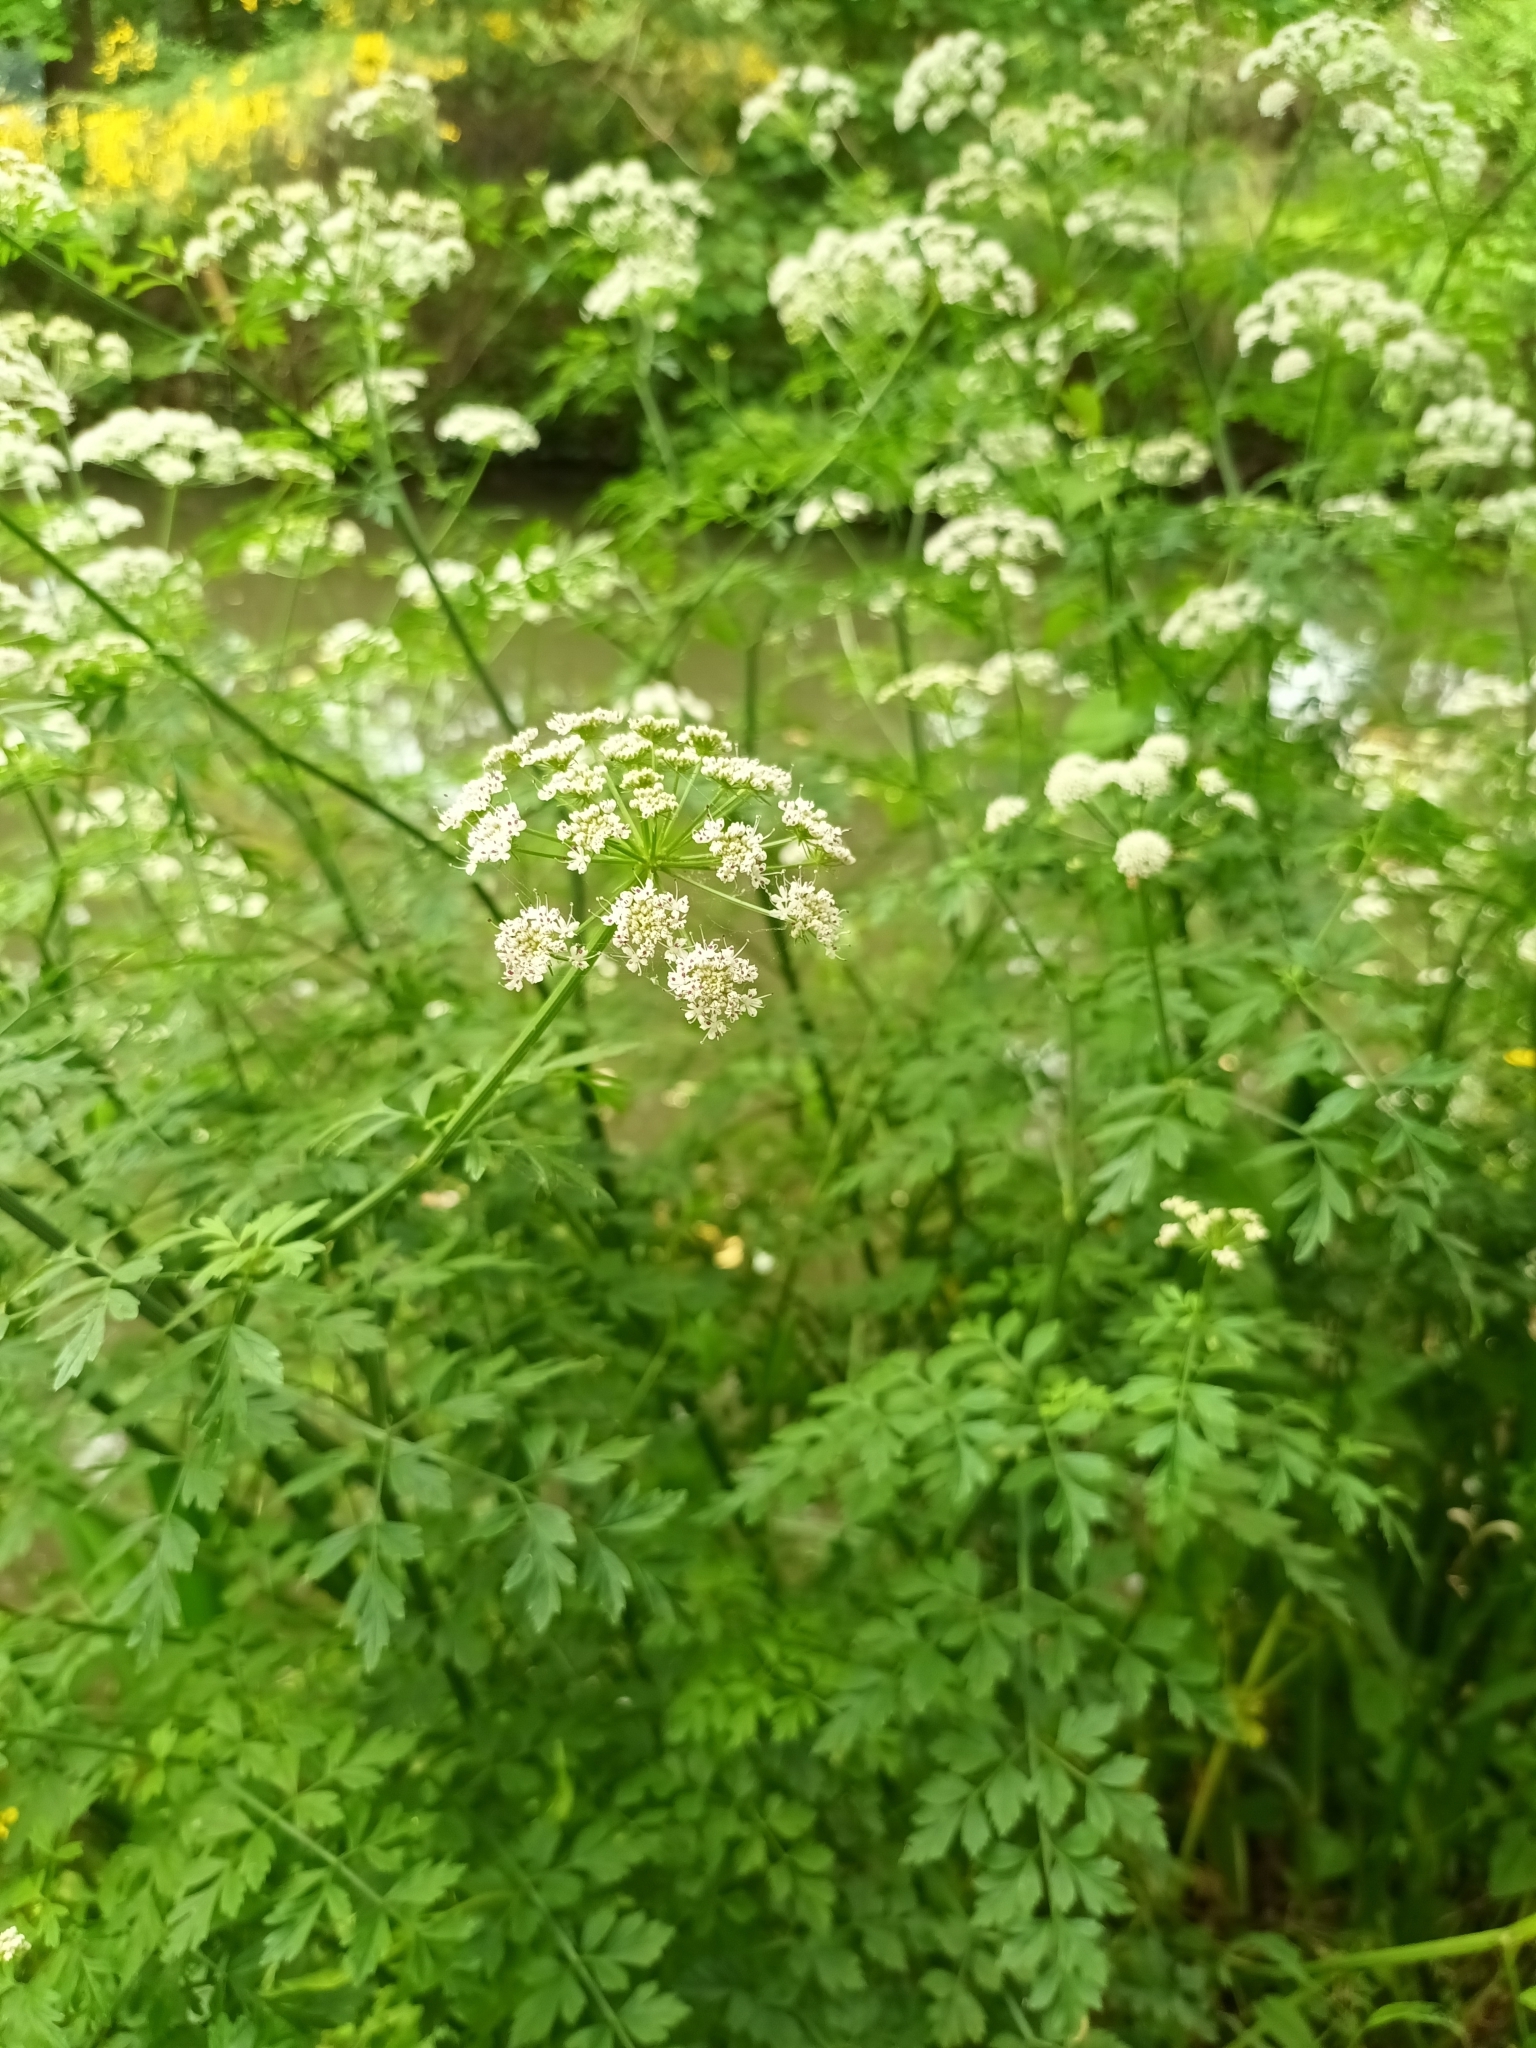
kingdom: Plantae
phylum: Tracheophyta
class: Magnoliopsida
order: Apiales
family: Apiaceae
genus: Oenanthe
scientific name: Oenanthe crocata
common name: Hemlock water-dropwort
